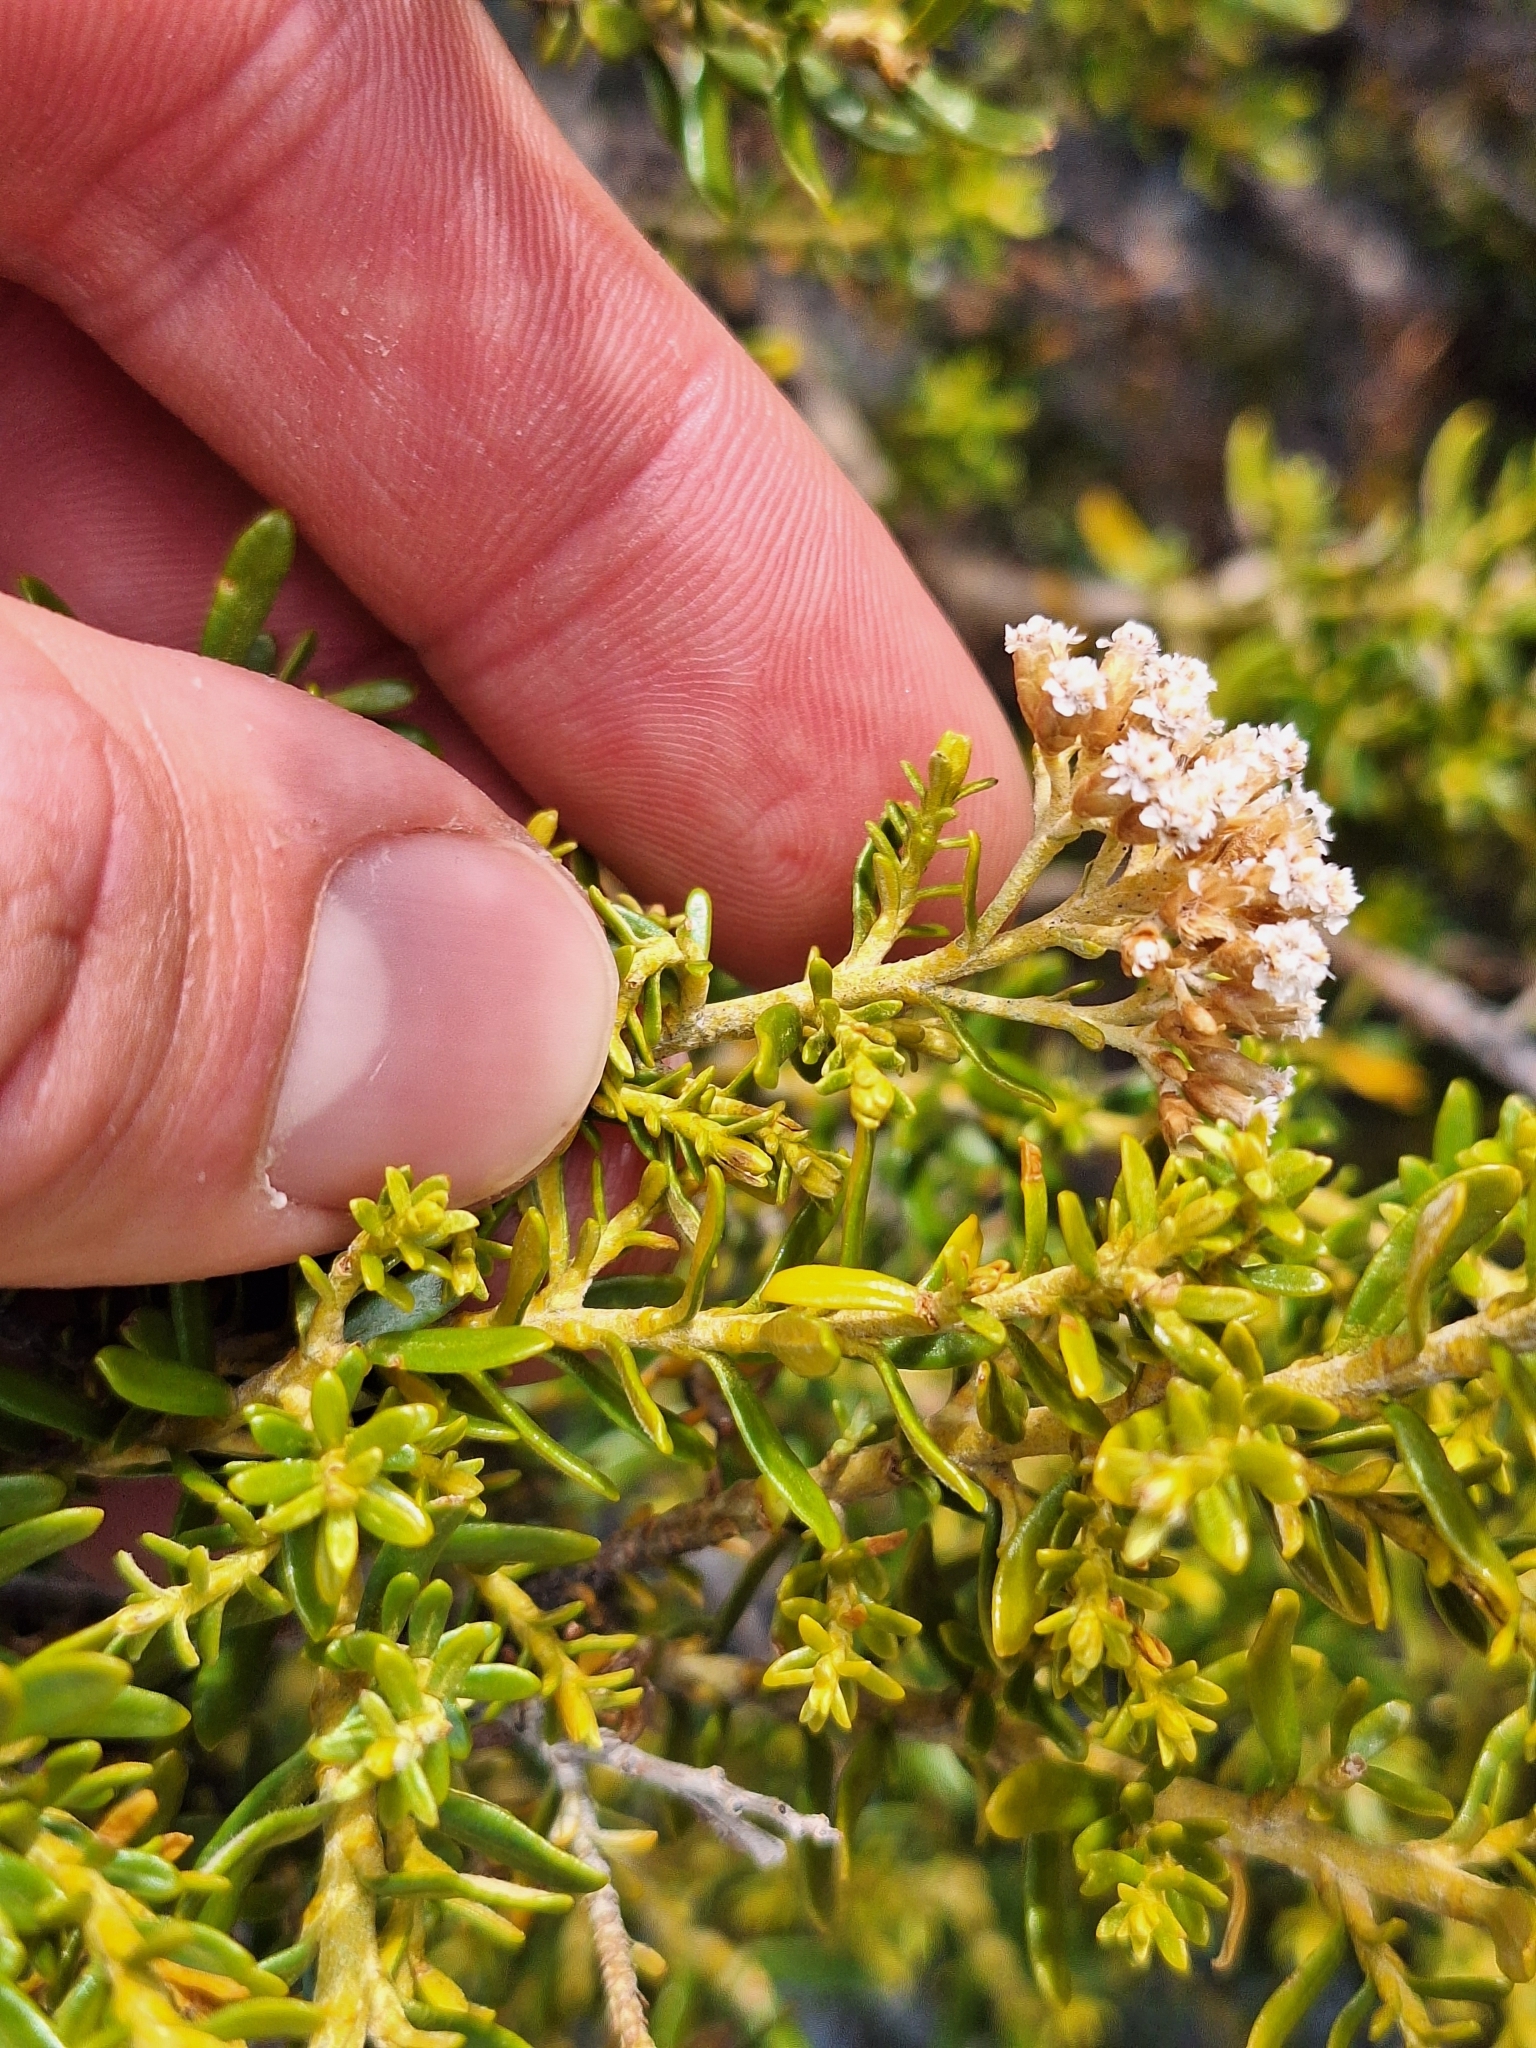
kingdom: Plantae
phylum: Tracheophyta
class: Magnoliopsida
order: Asterales
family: Asteraceae
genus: Ozothamnus
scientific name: Ozothamnus leptophyllus
